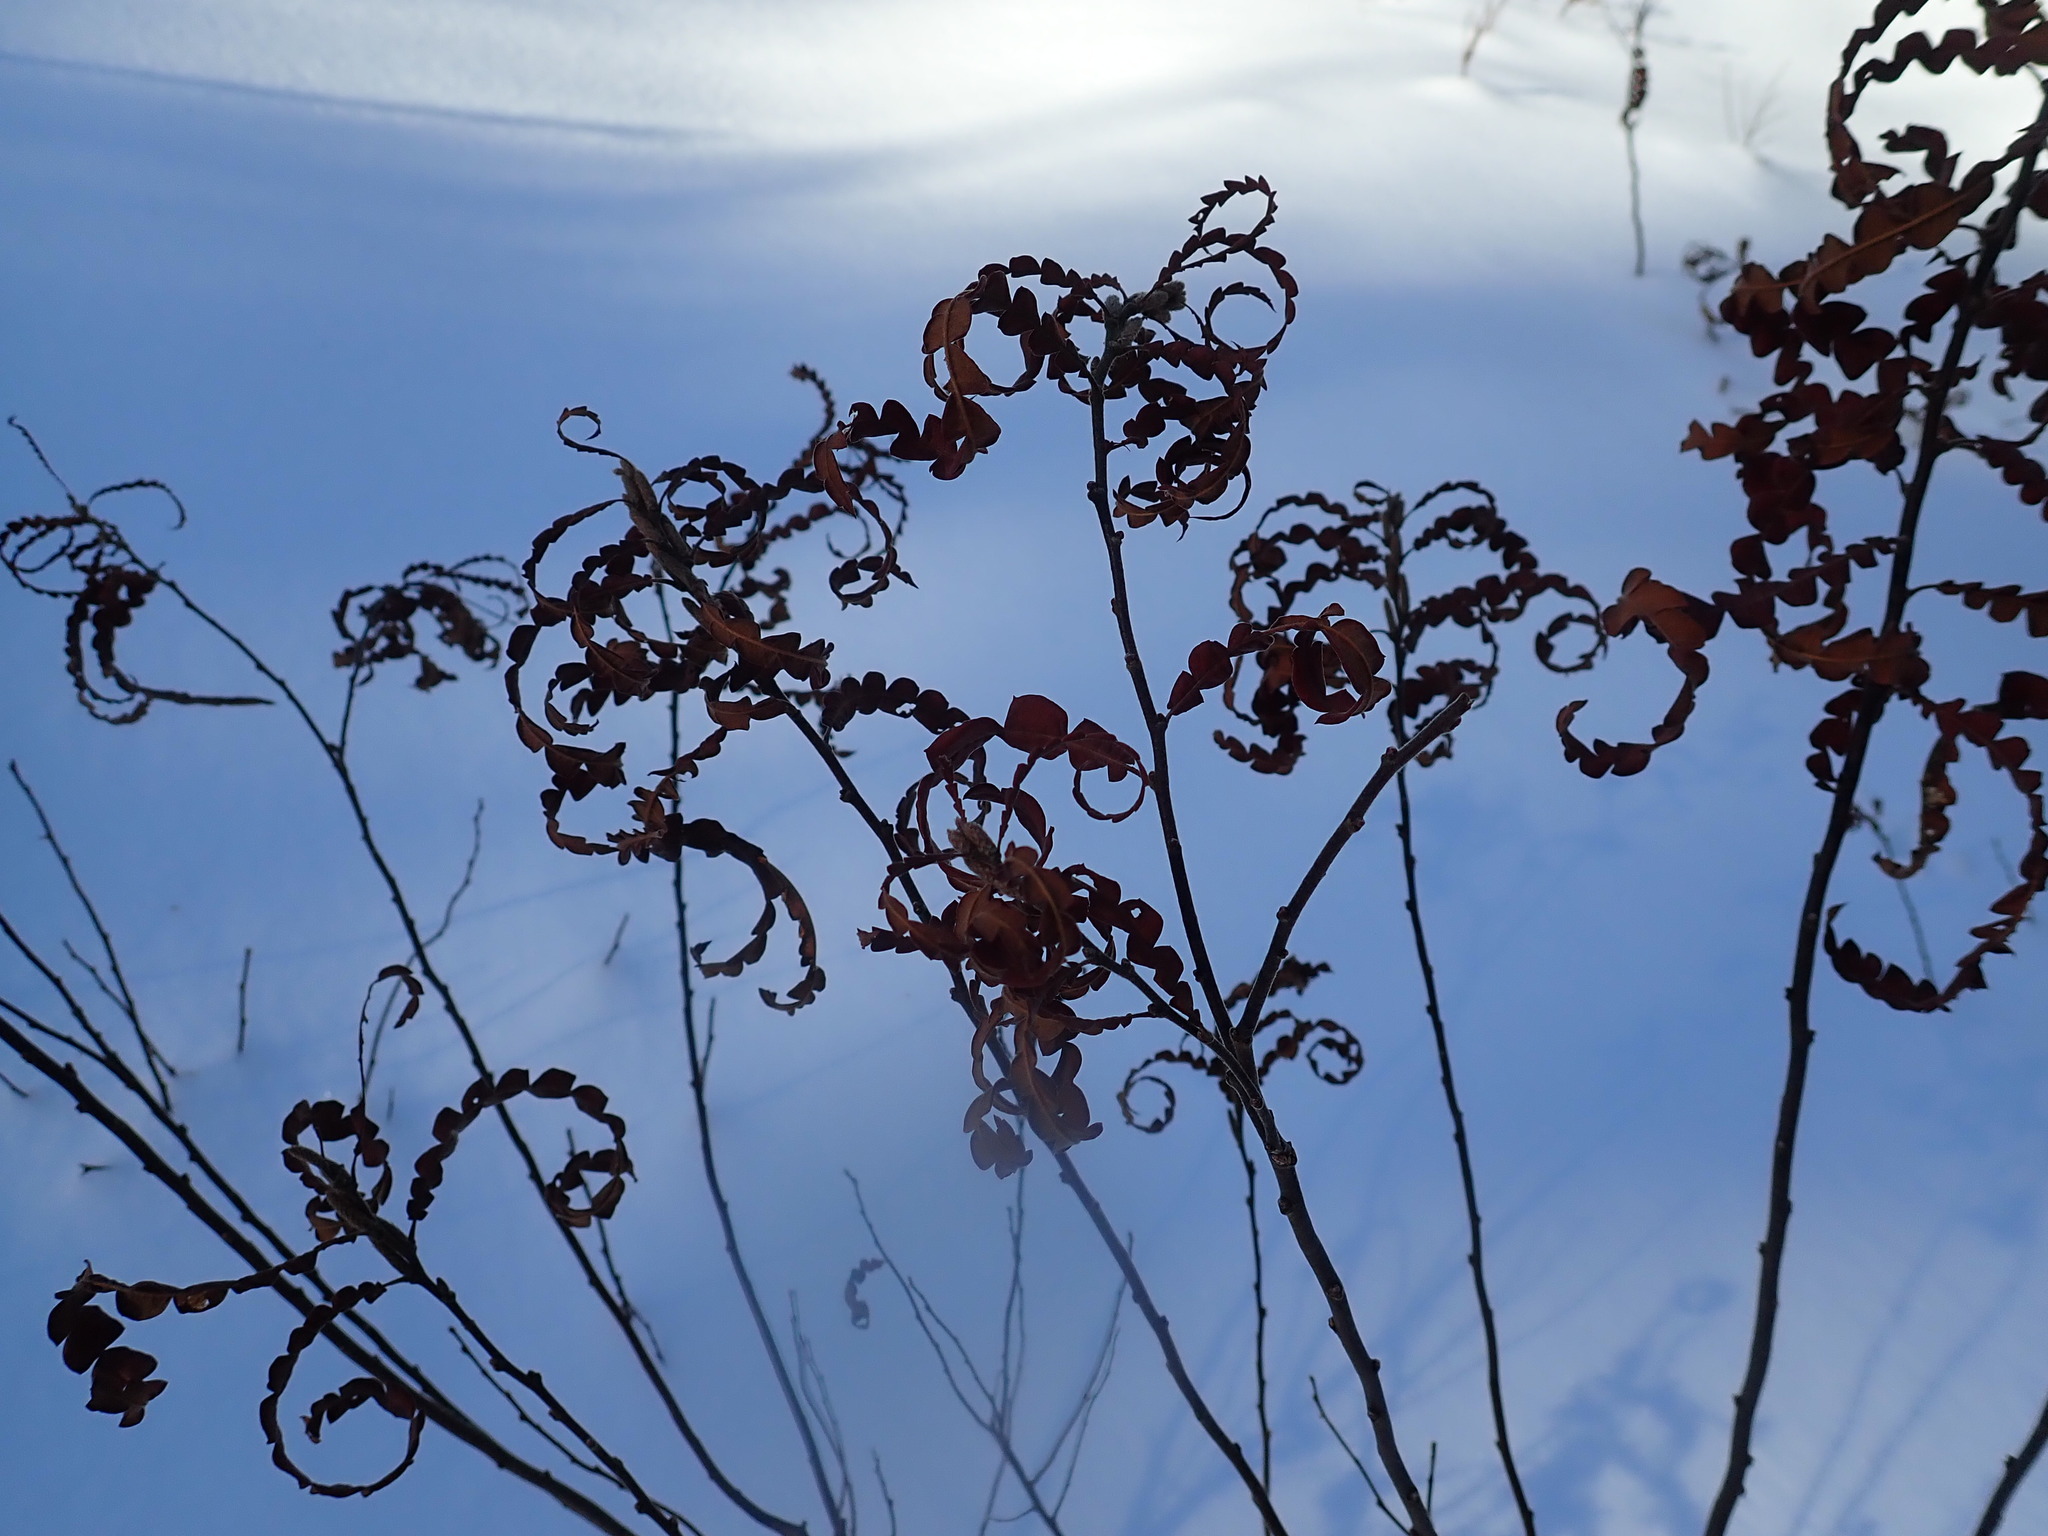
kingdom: Plantae
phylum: Tracheophyta
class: Magnoliopsida
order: Fagales
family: Myricaceae
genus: Comptonia
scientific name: Comptonia peregrina
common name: Sweet-fern
